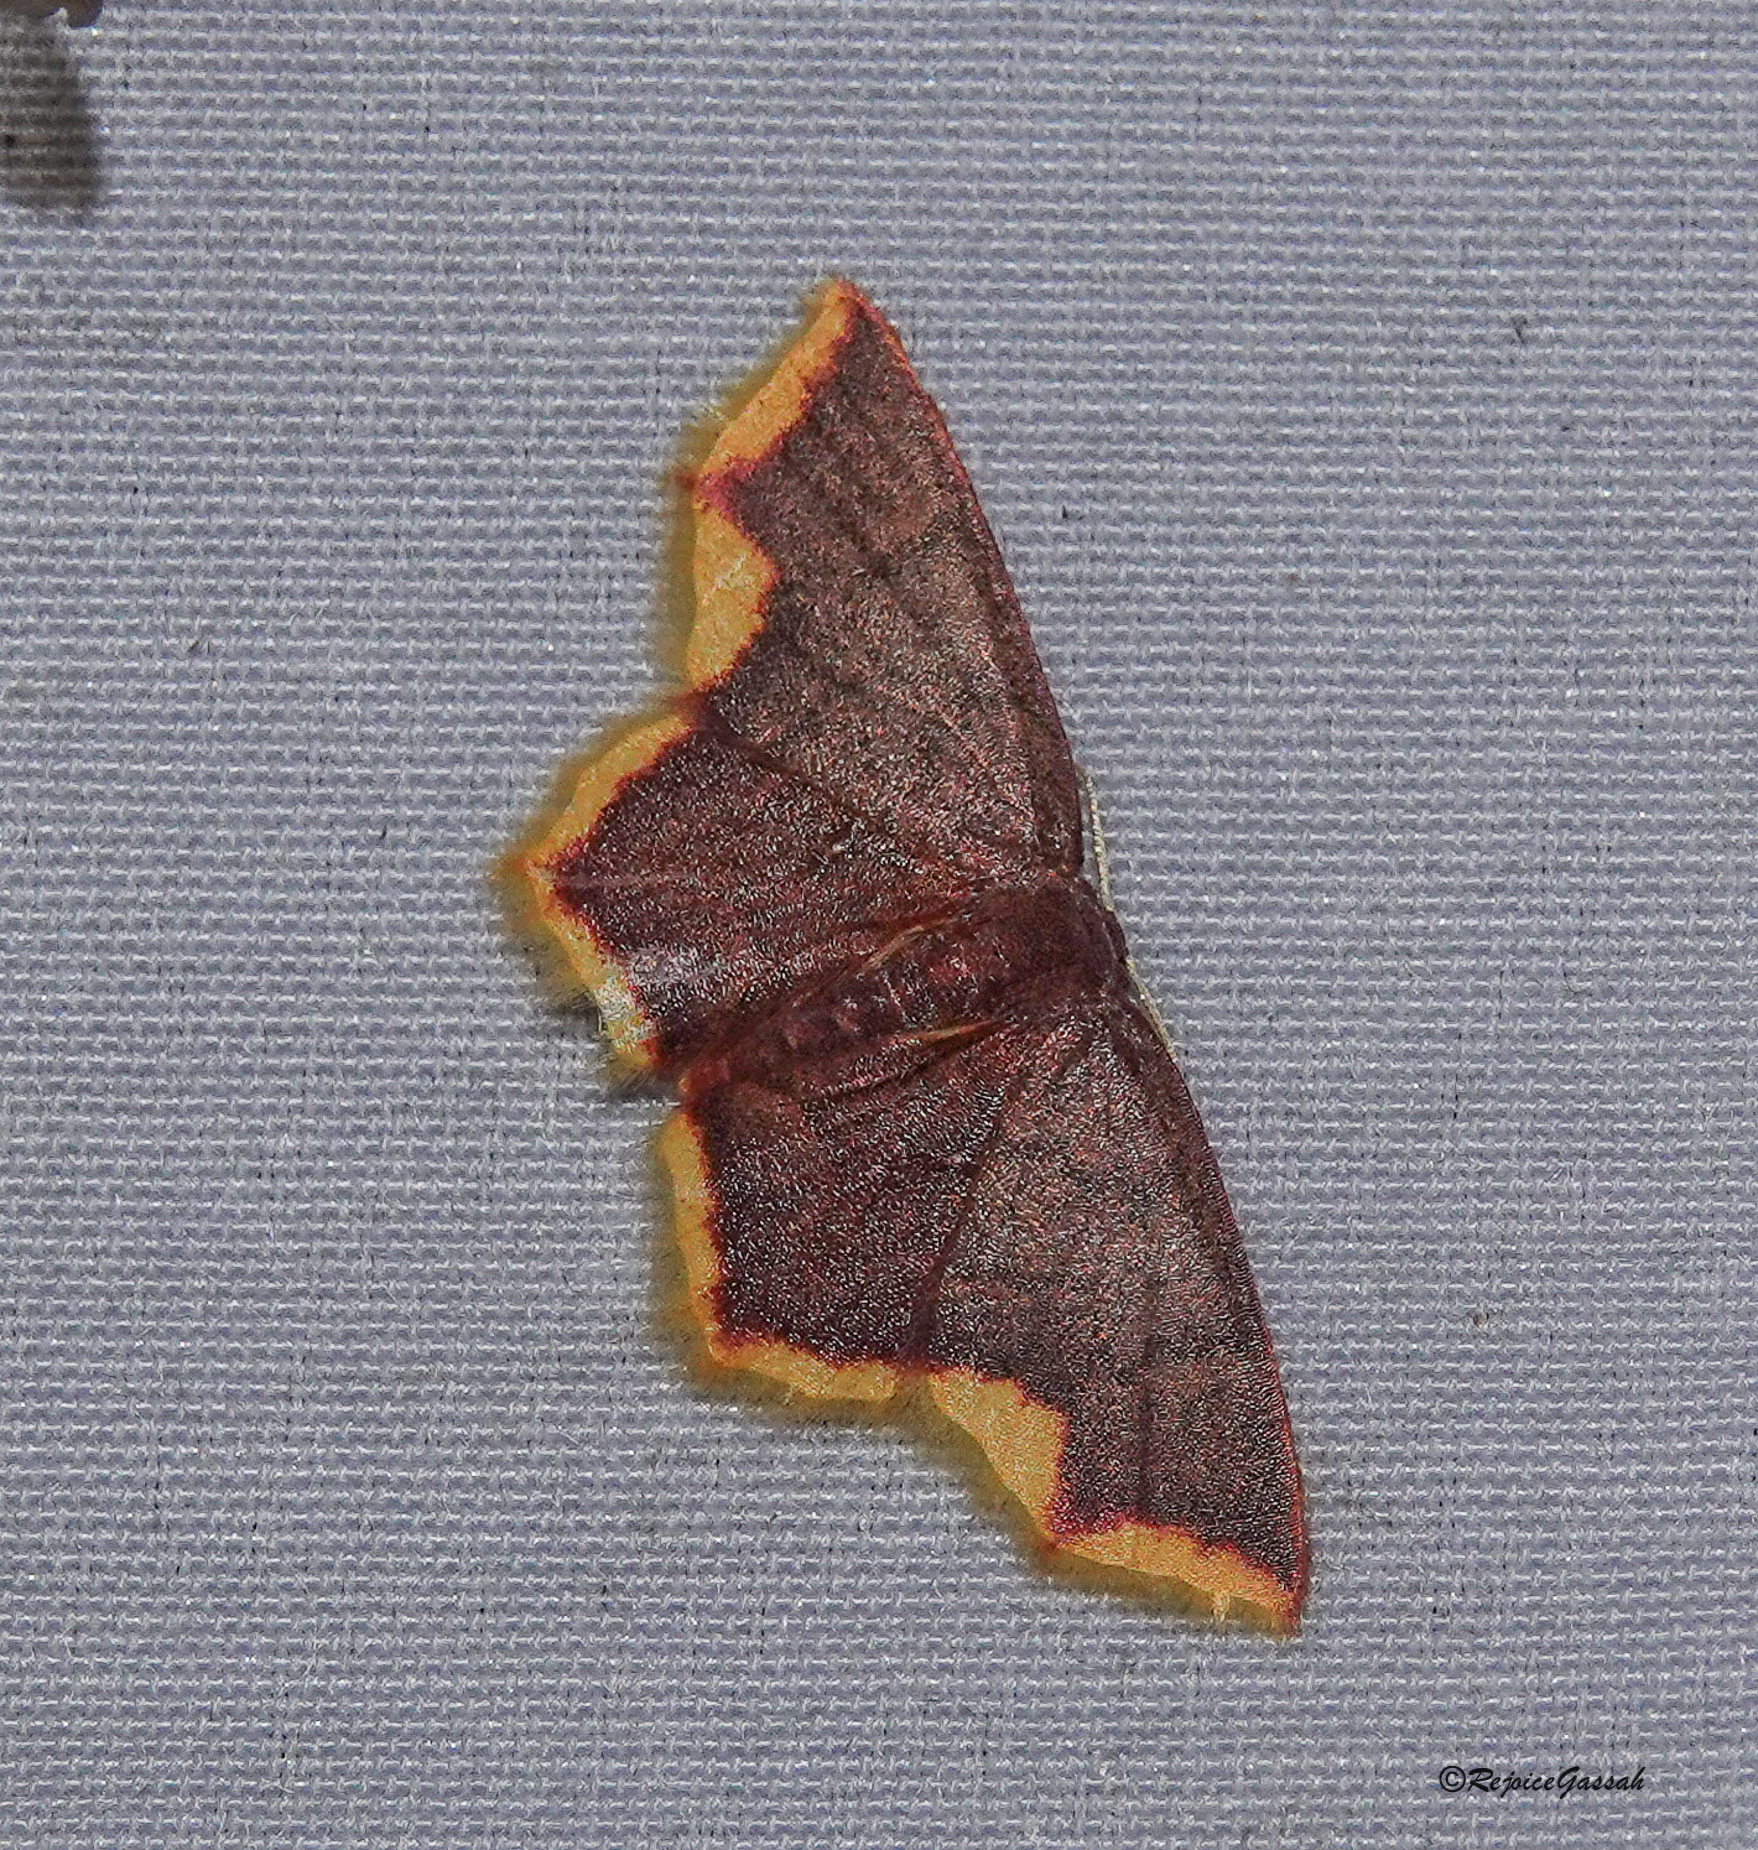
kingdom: Animalia
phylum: Arthropoda
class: Insecta
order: Lepidoptera
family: Geometridae
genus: Chrysocraspeda
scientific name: Chrysocraspeda faganaria
